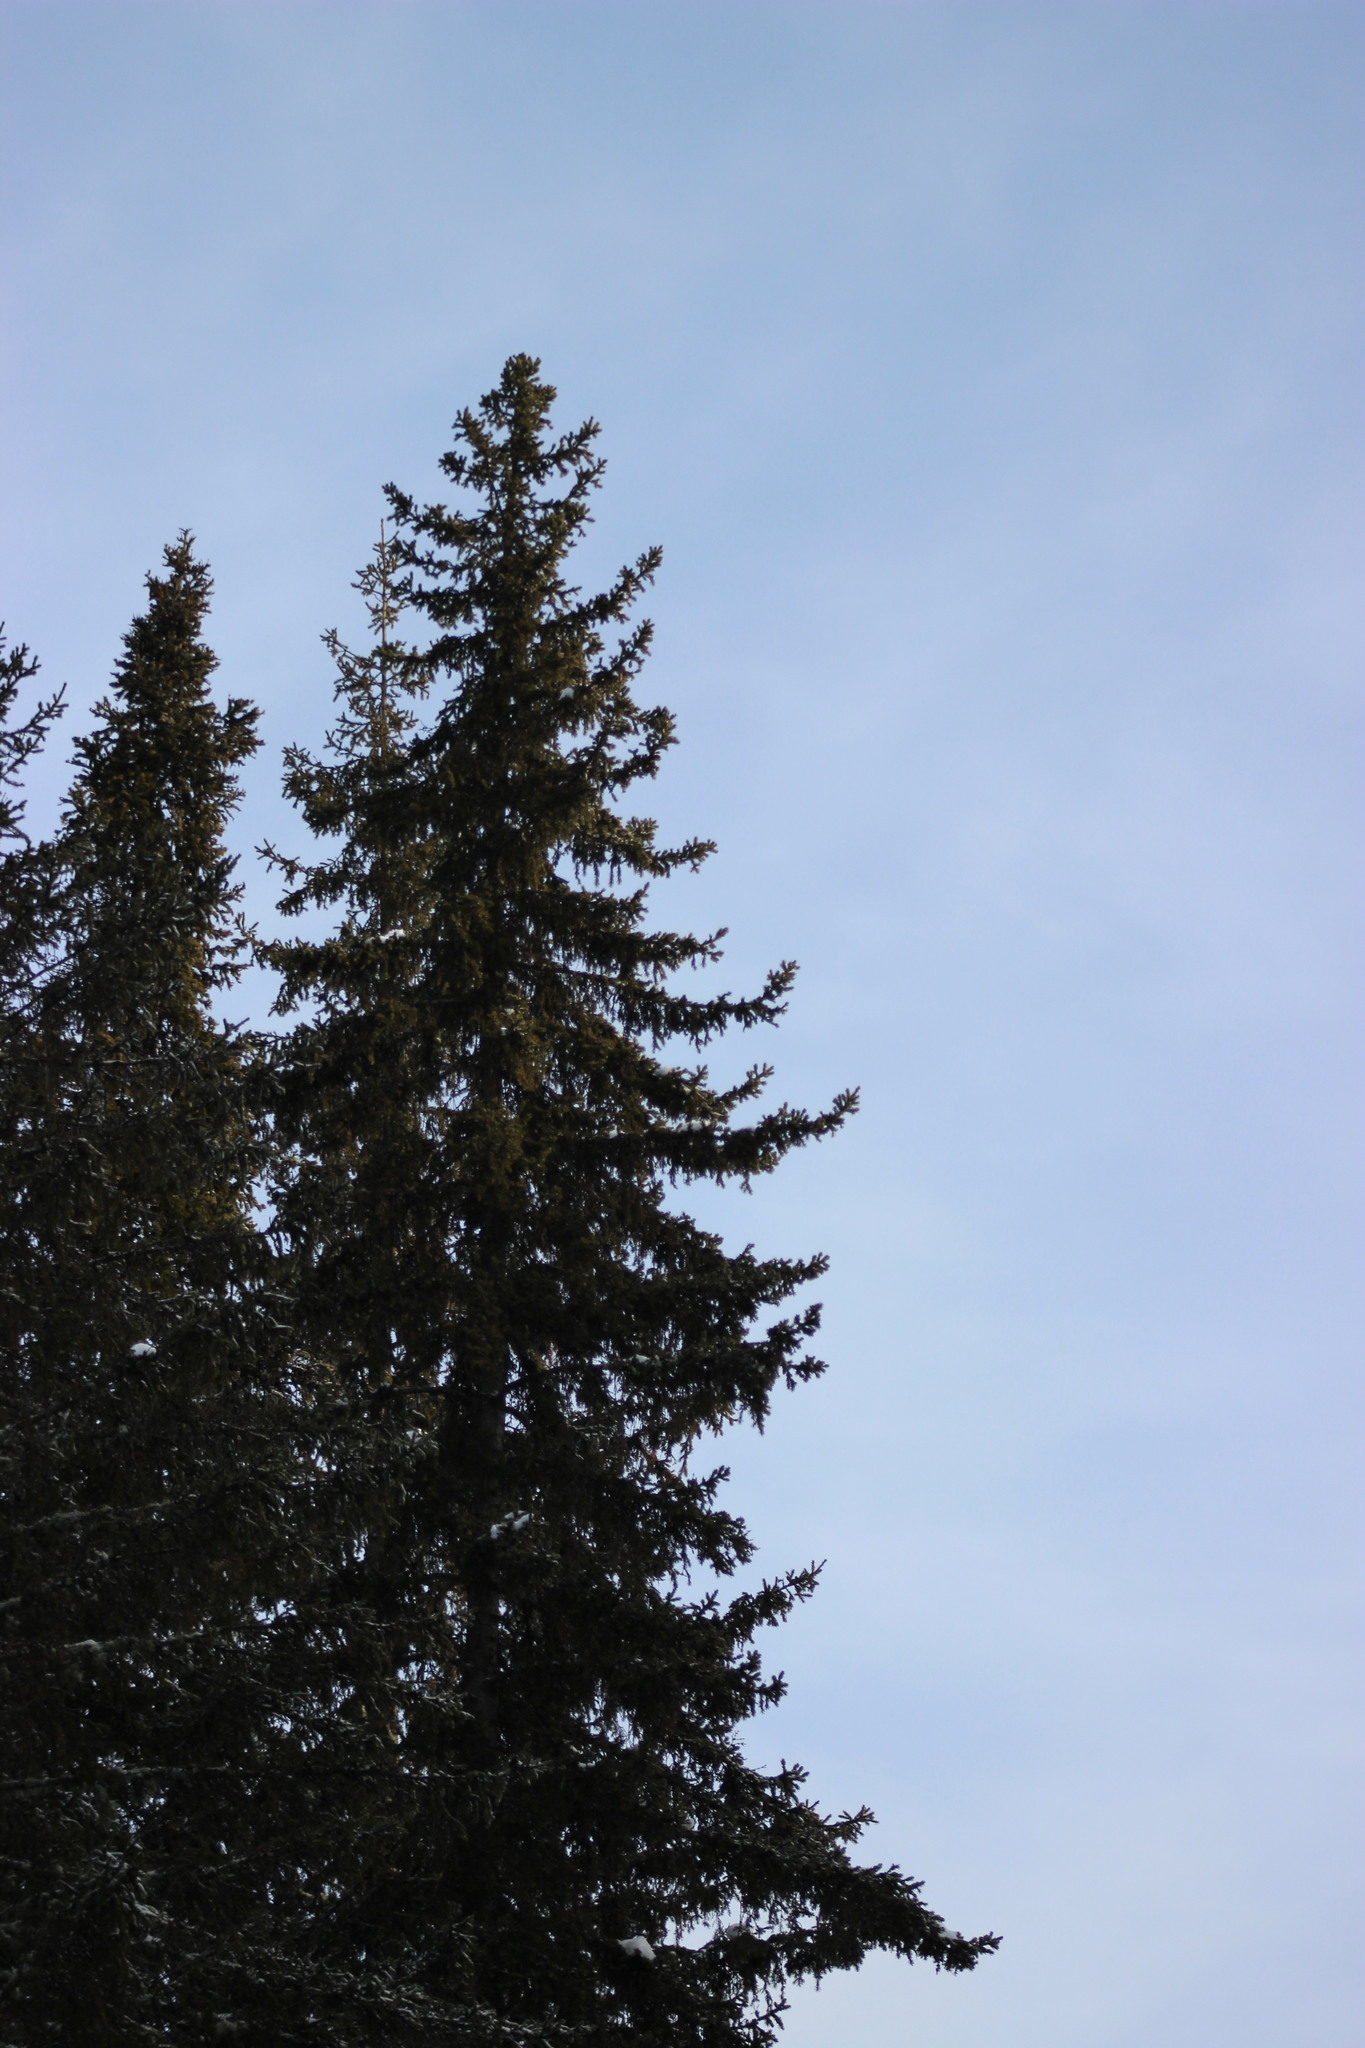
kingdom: Plantae
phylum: Tracheophyta
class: Pinopsida
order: Pinales
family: Pinaceae
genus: Picea
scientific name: Picea obovata
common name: Siberian spruce
